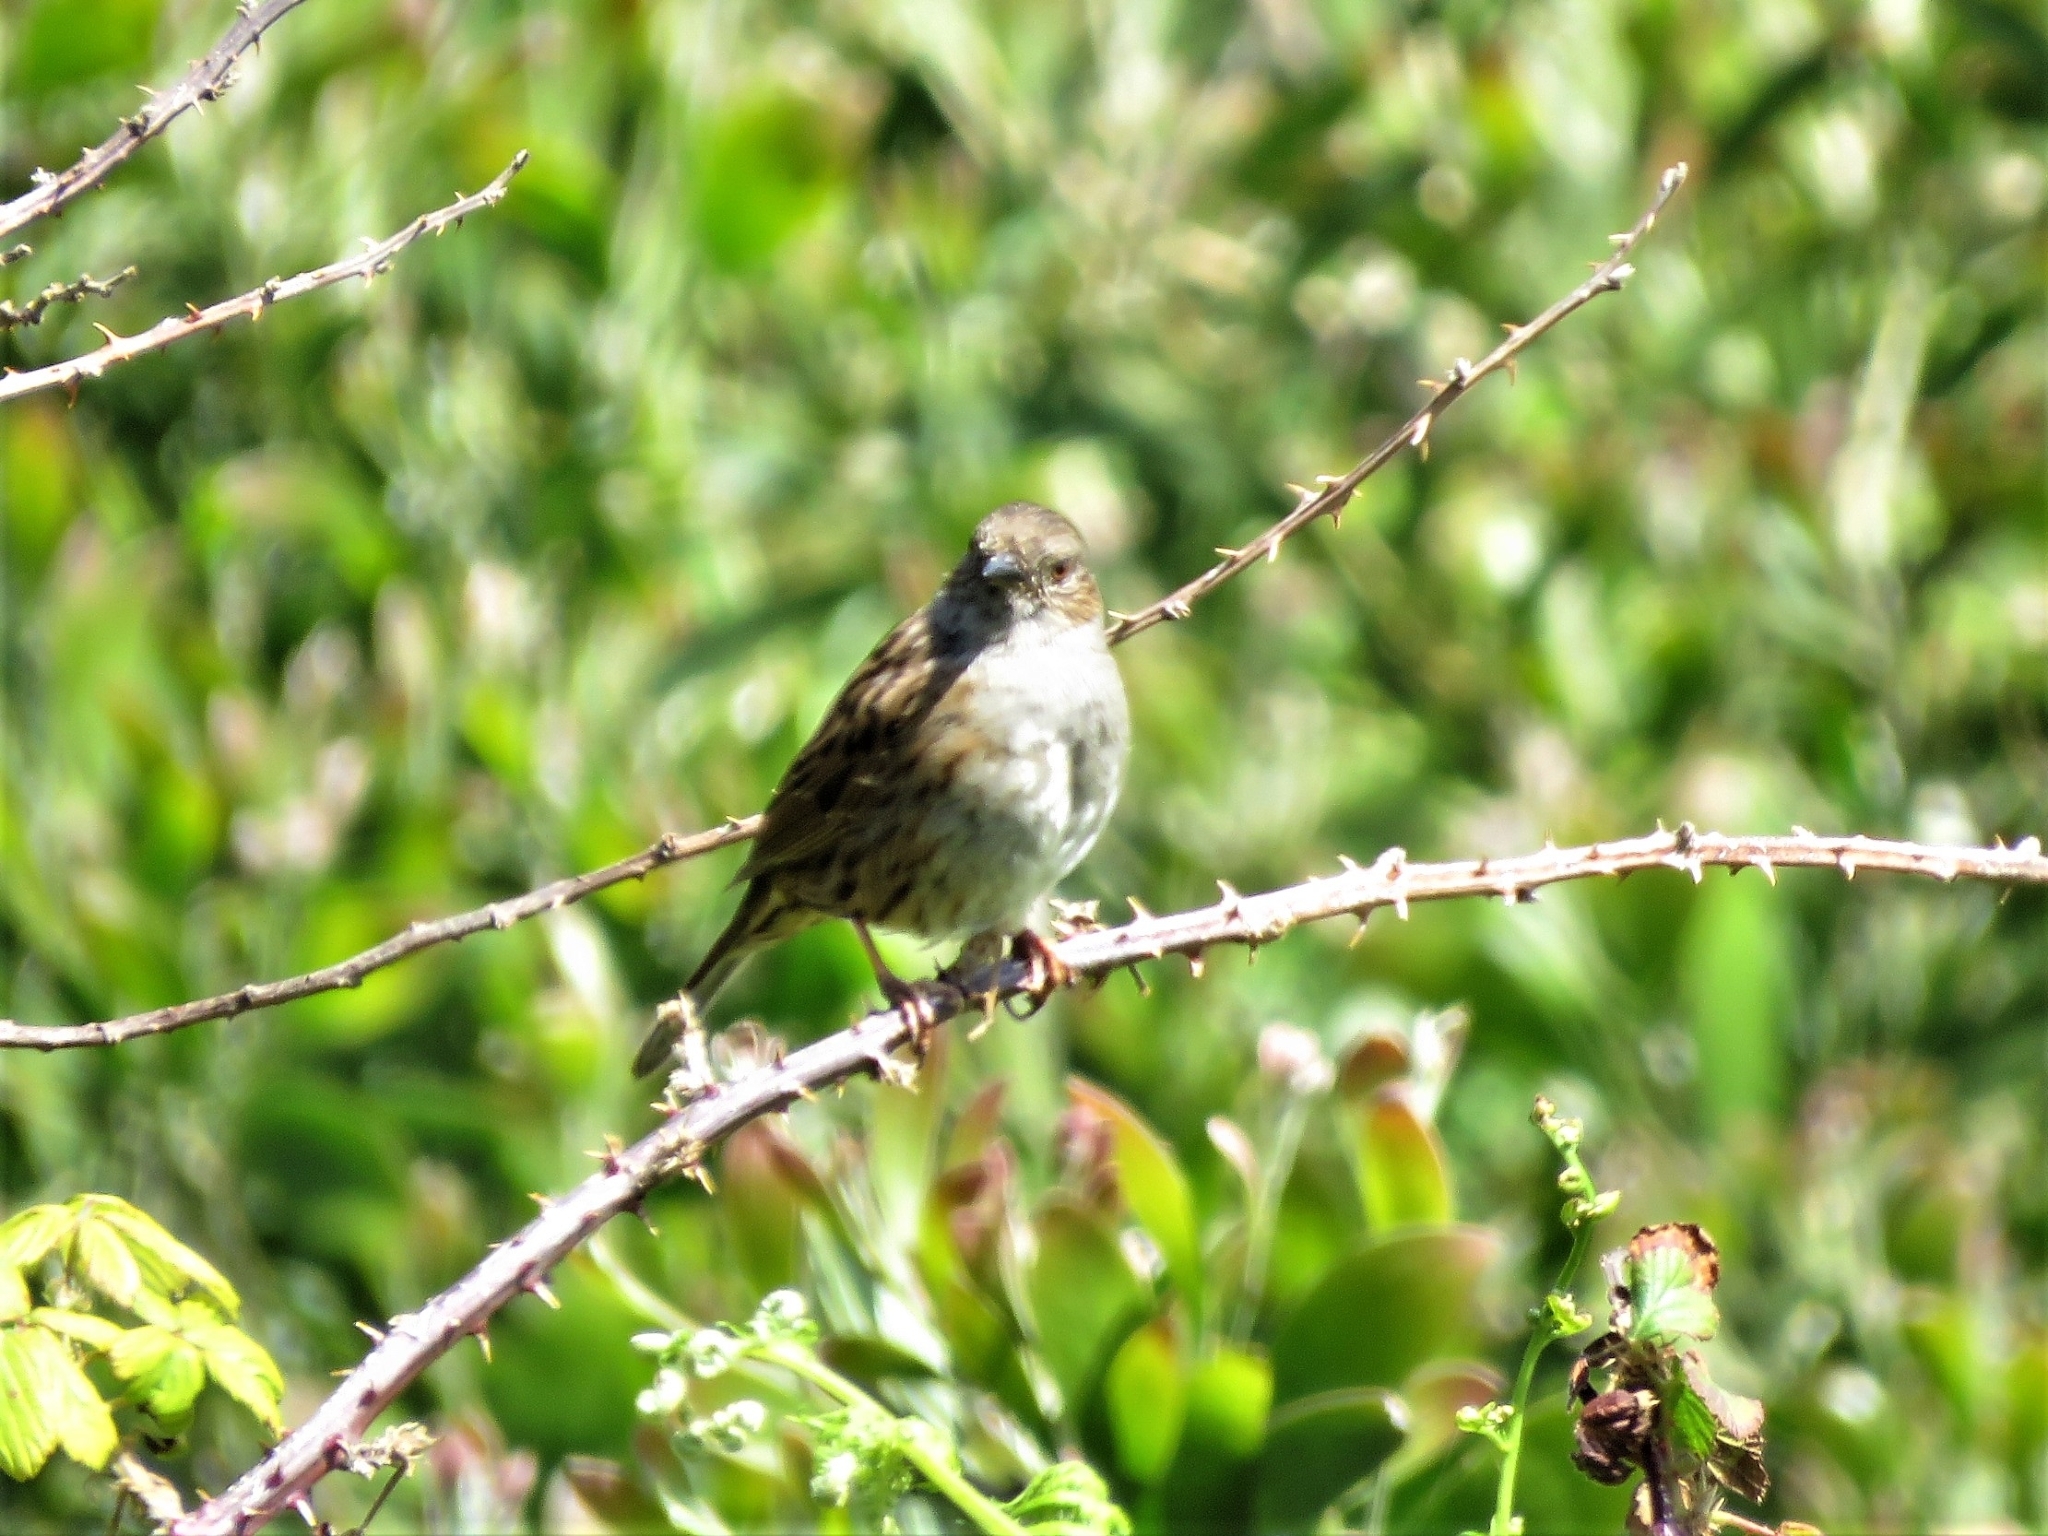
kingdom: Animalia
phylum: Chordata
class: Aves
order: Passeriformes
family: Prunellidae
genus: Prunella
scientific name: Prunella modularis
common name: Dunnock
